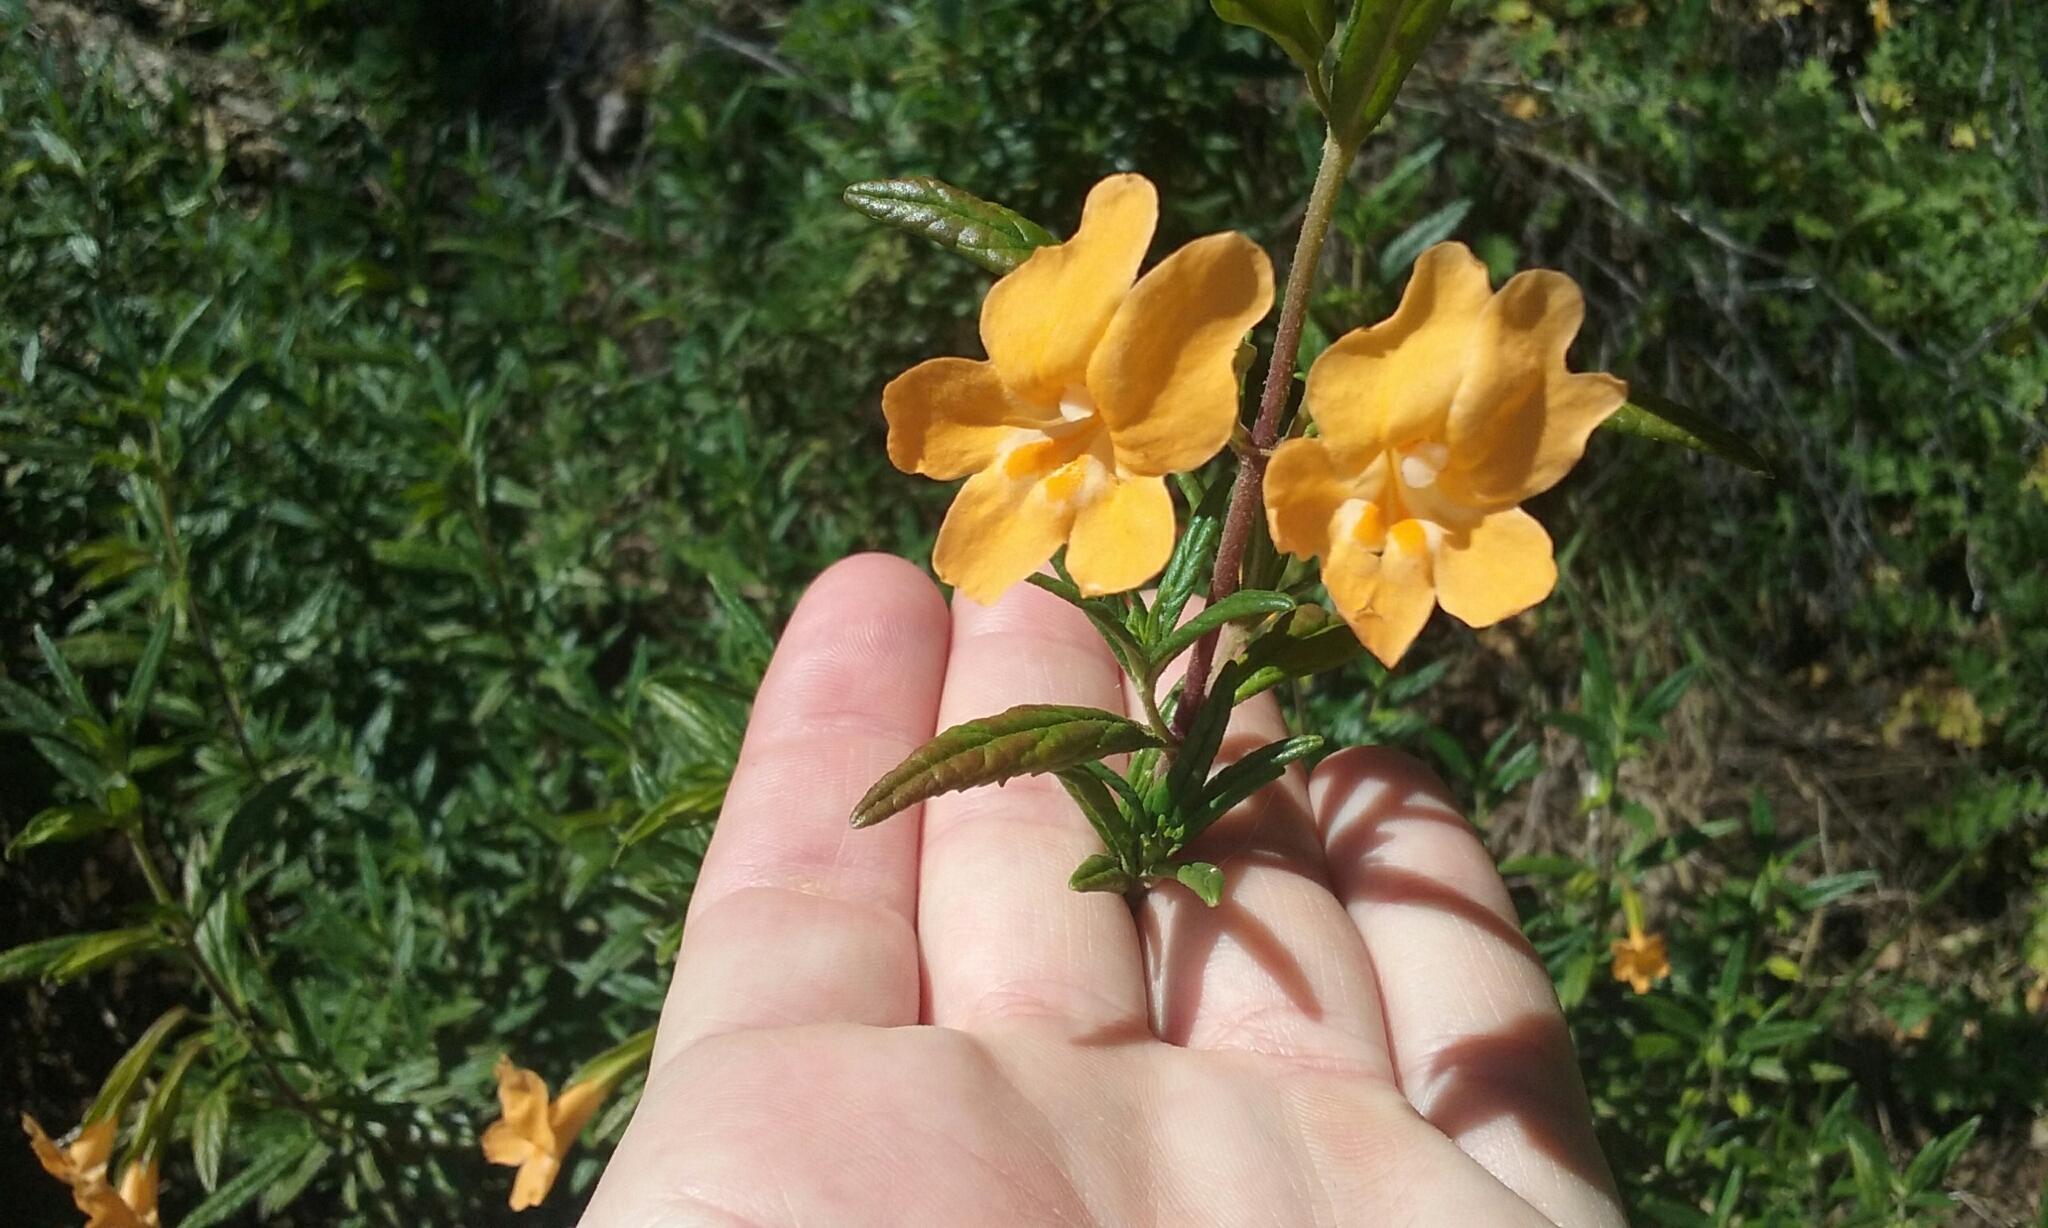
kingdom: Plantae
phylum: Tracheophyta
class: Magnoliopsida
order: Lamiales
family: Phrymaceae
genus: Diplacus
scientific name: Diplacus aurantiacus
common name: Bush monkey-flower
